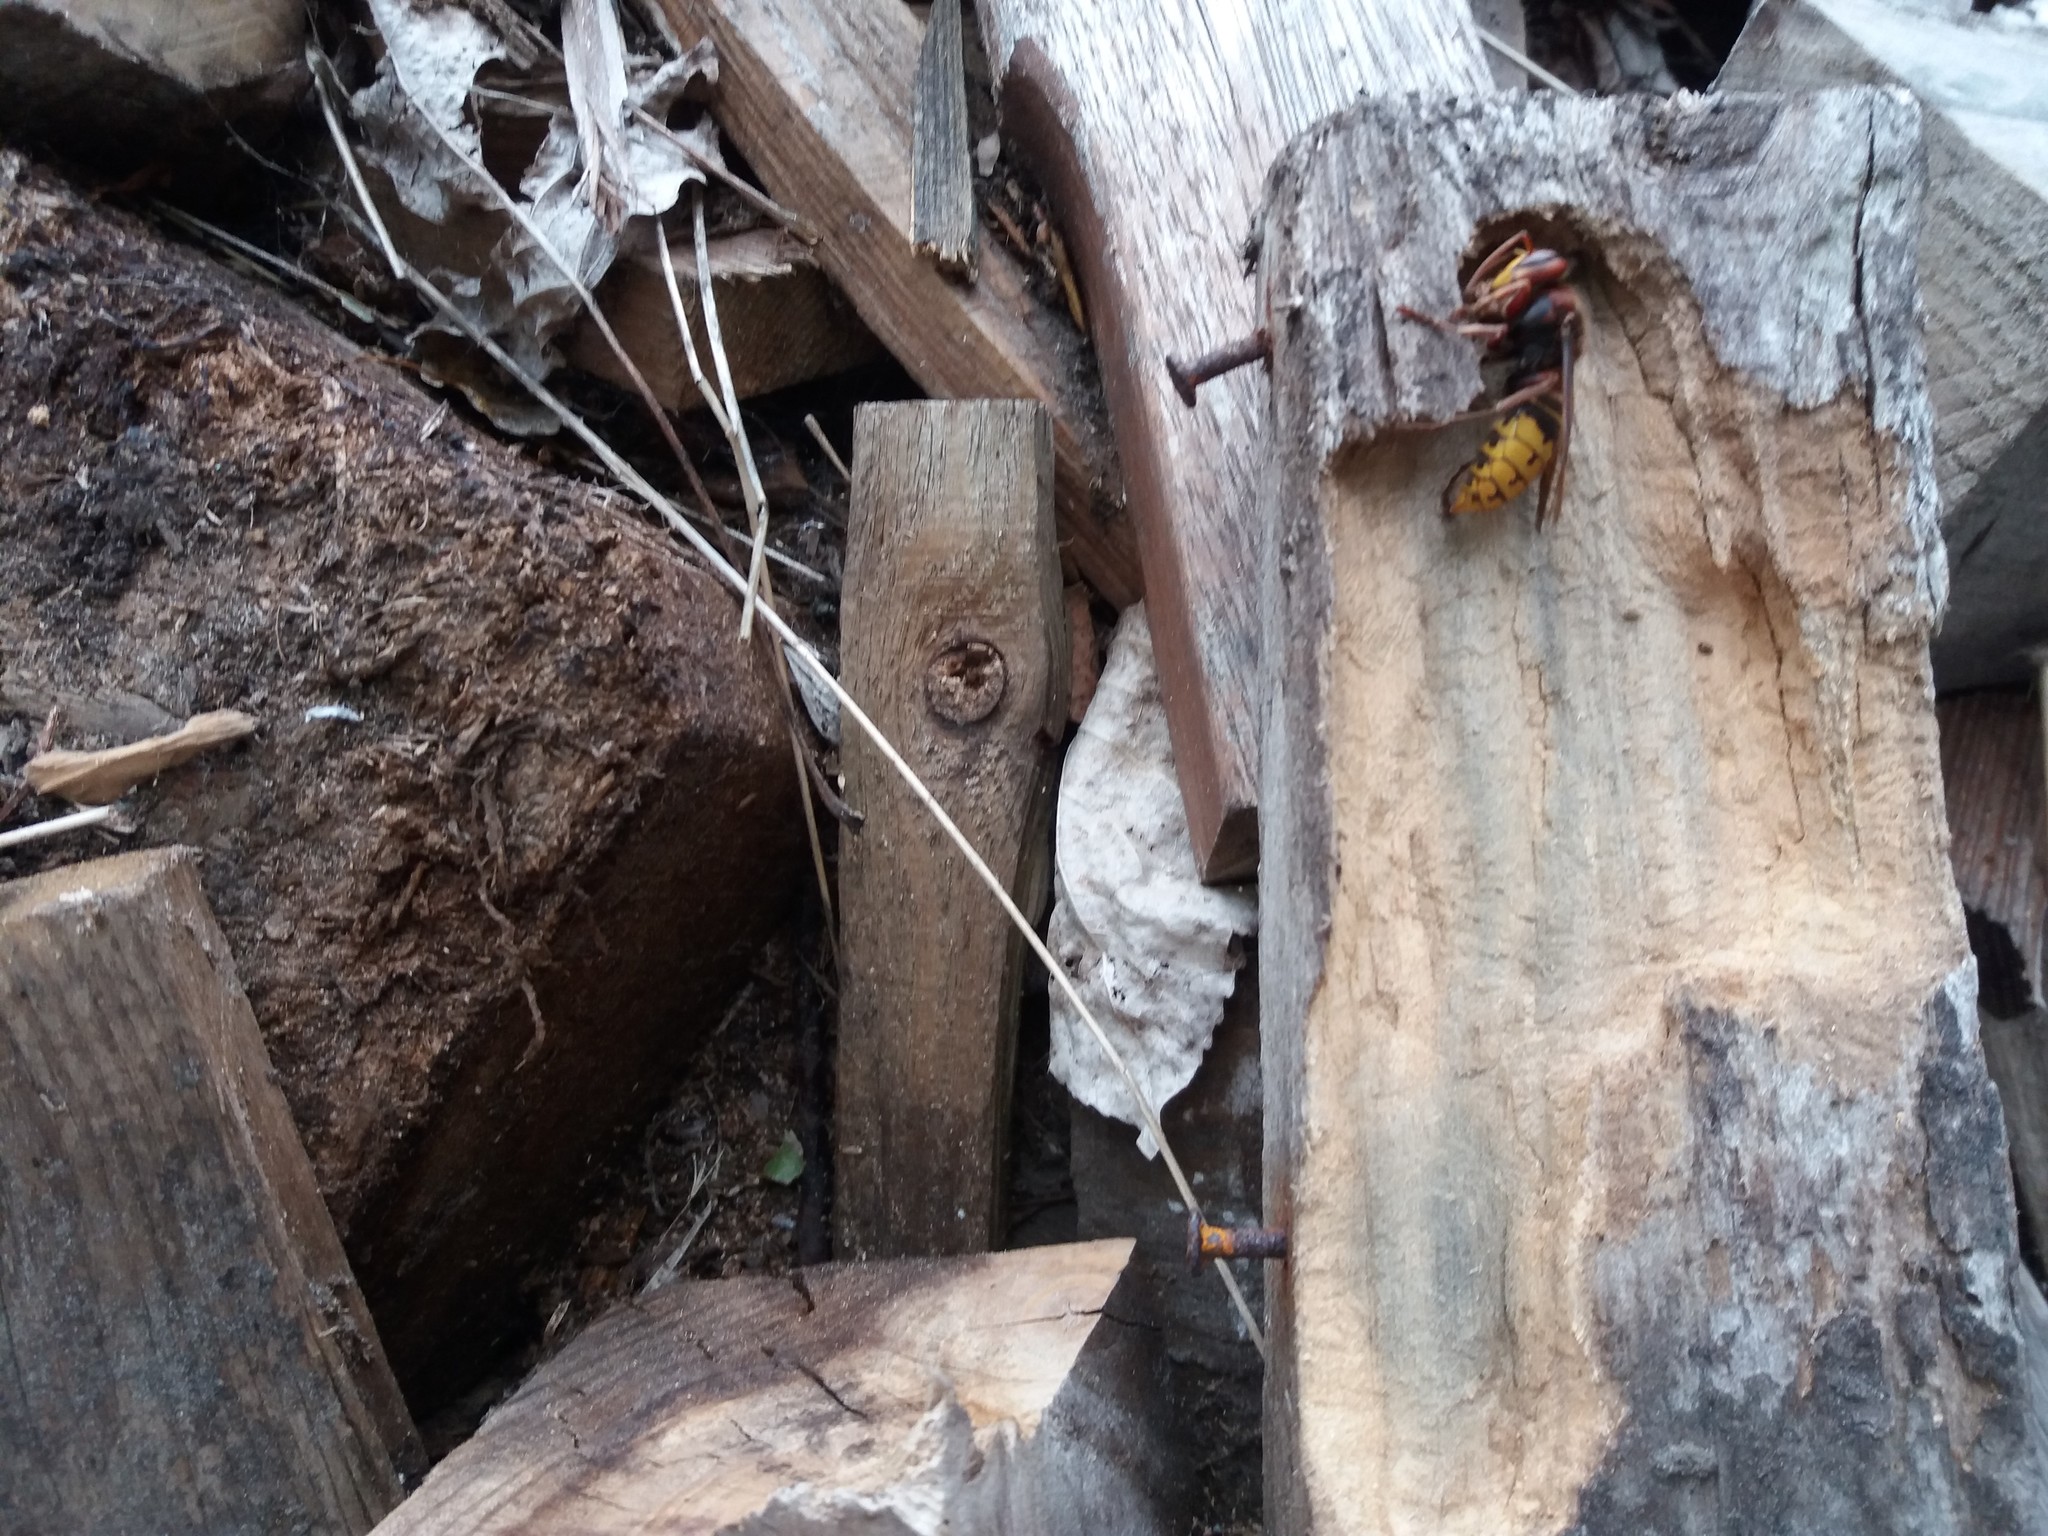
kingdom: Animalia
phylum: Arthropoda
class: Insecta
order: Hymenoptera
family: Vespidae
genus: Vespa
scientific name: Vespa crabro
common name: Hornet
